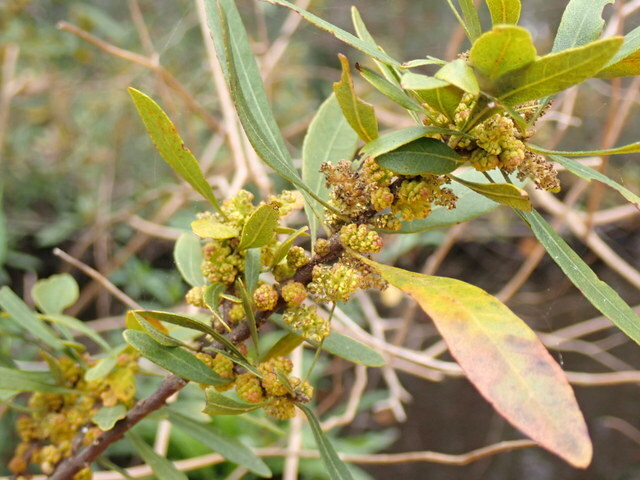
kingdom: Plantae
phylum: Tracheophyta
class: Magnoliopsida
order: Fagales
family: Myricaceae
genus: Morella
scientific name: Morella cerifera
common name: Wax myrtle
